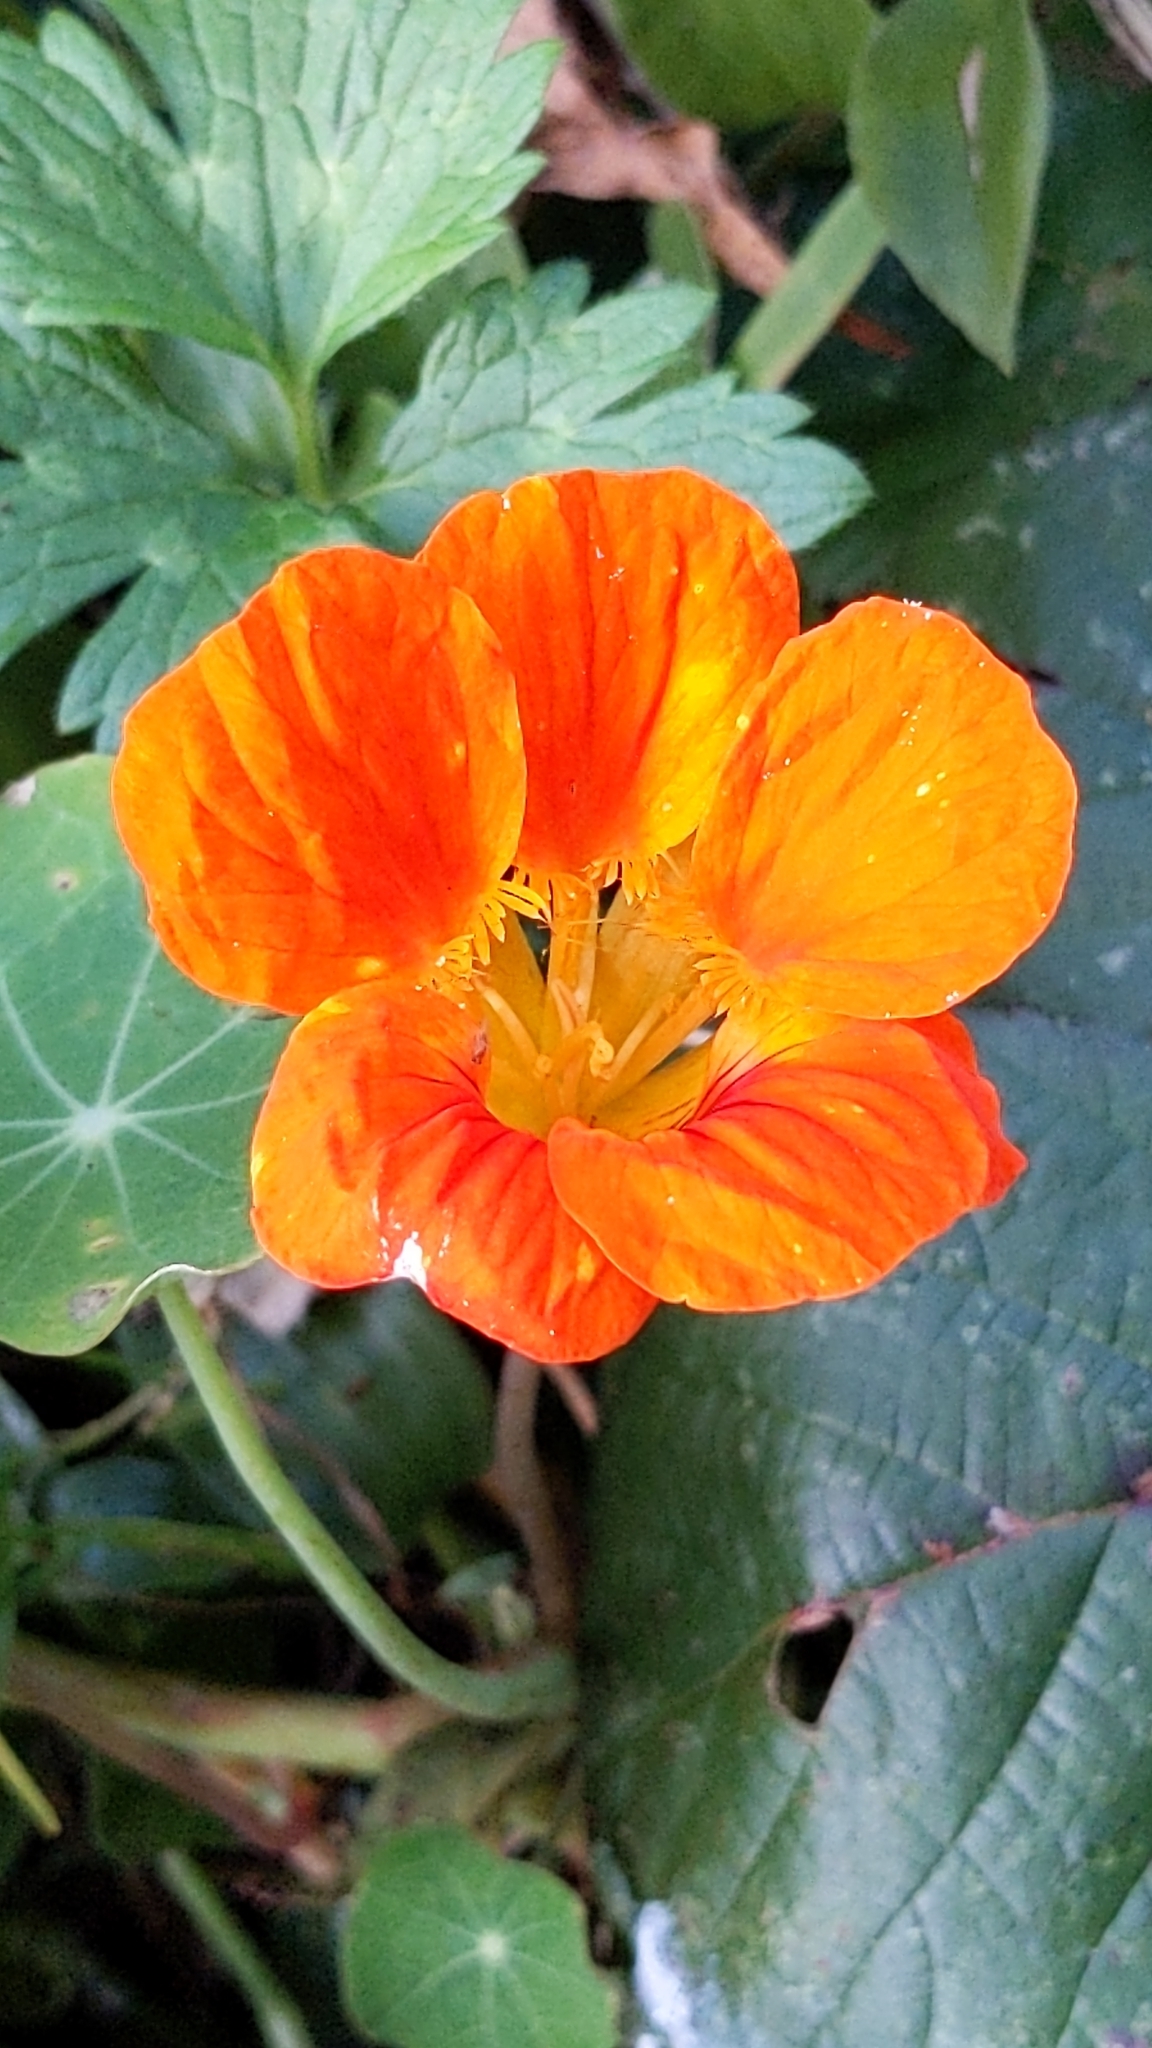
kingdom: Plantae
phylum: Tracheophyta
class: Magnoliopsida
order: Brassicales
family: Tropaeolaceae
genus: Tropaeolum
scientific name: Tropaeolum majus
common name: Nasturtium
